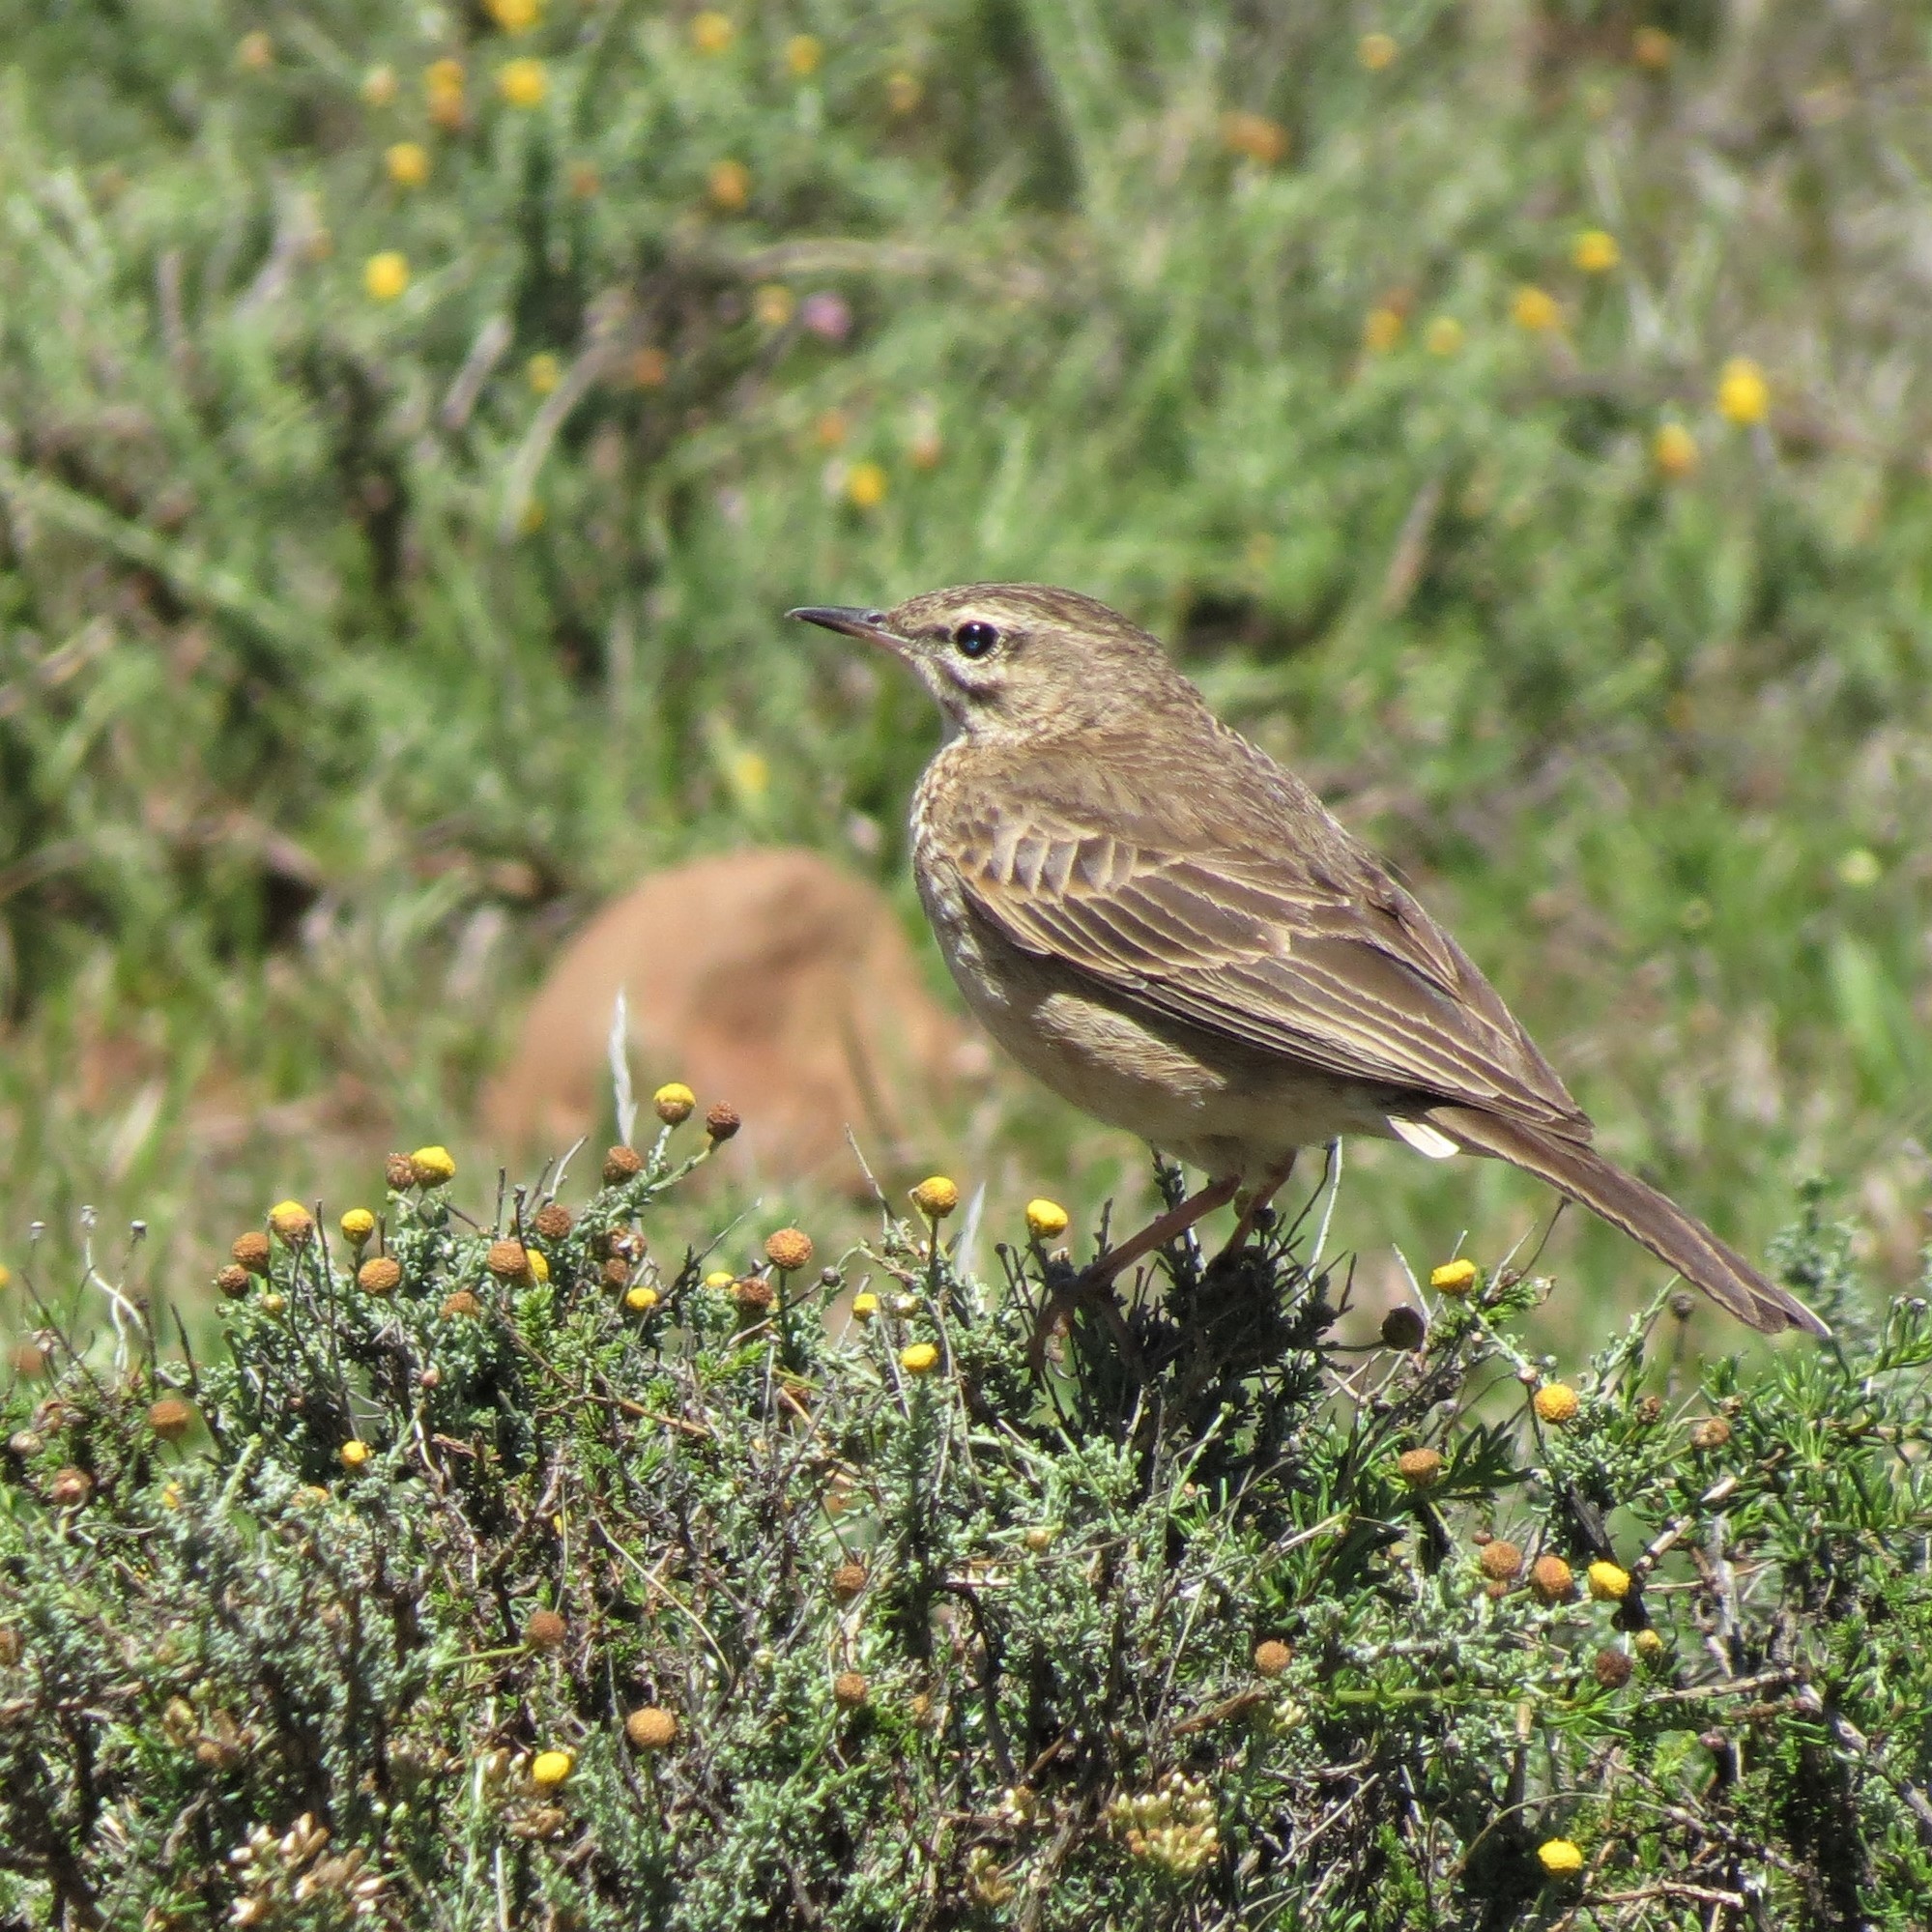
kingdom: Animalia
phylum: Chordata
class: Aves
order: Passeriformes
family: Motacillidae
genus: Anthus
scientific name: Anthus nicholsoni
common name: Nicholson's pipit
